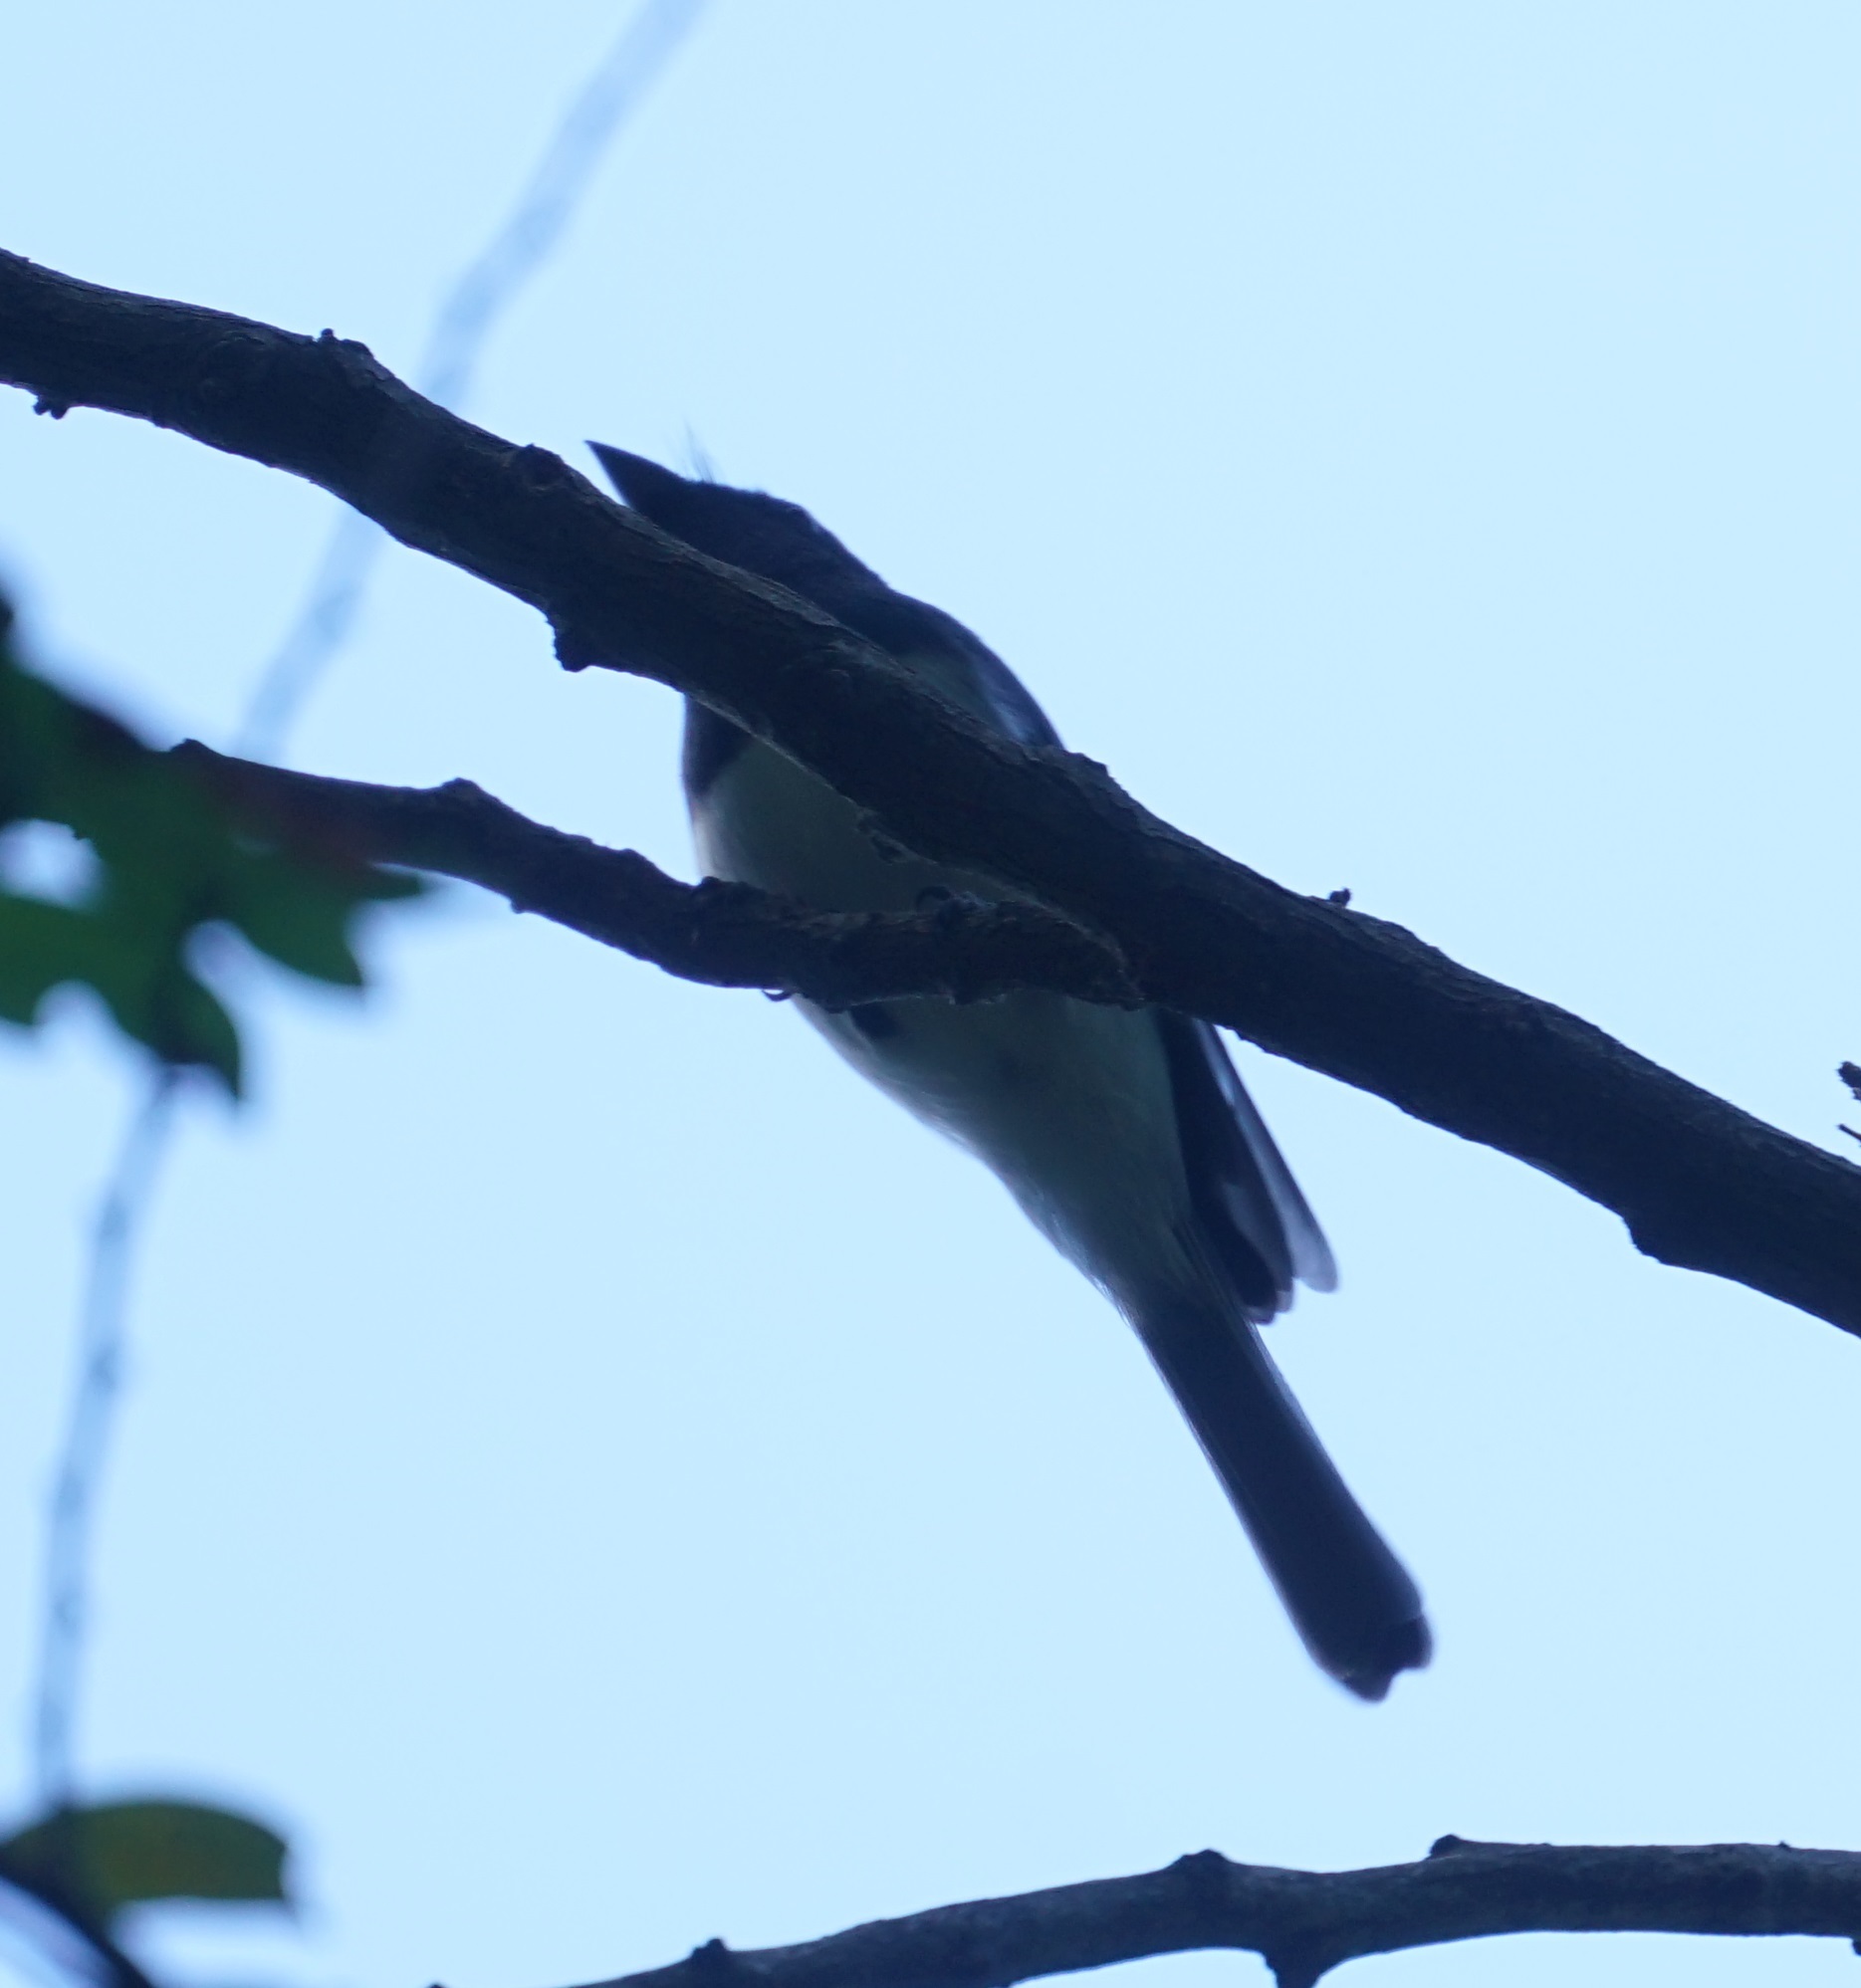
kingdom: Animalia
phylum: Chordata
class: Aves
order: Passeriformes
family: Monarchidae
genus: Myiagra
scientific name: Myiagra rubecula
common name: Leaden flycatcher
